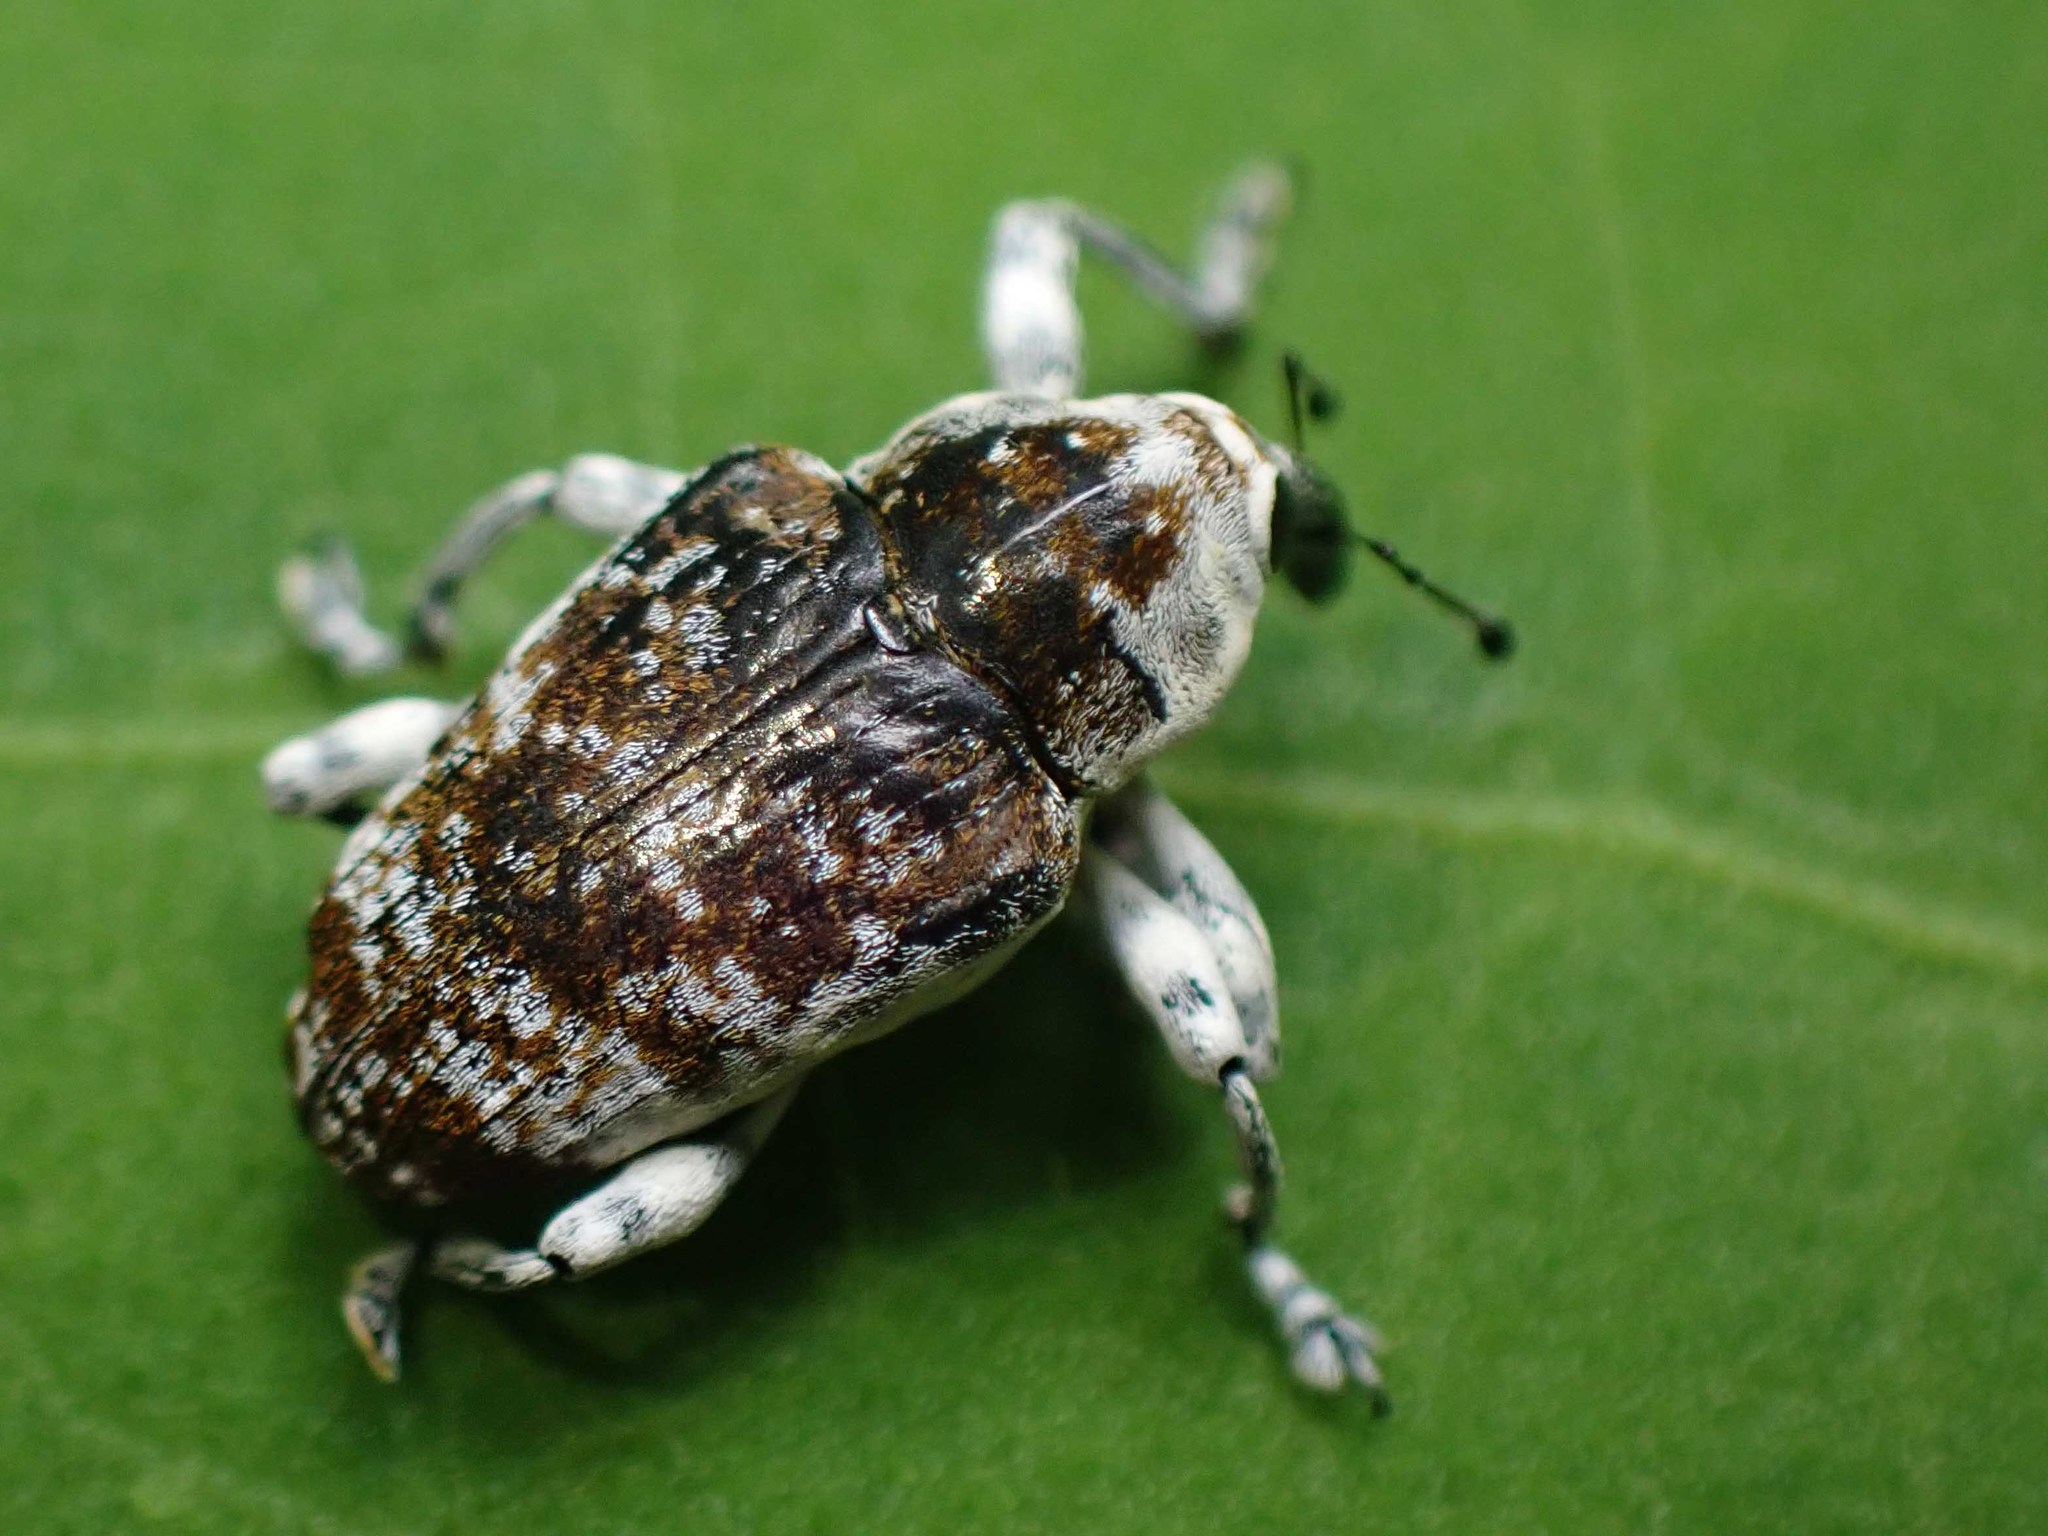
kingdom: Animalia
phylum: Arthropoda
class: Insecta
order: Coleoptera
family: Curculionidae
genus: Peridinetus
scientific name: Peridinetus irroratus
